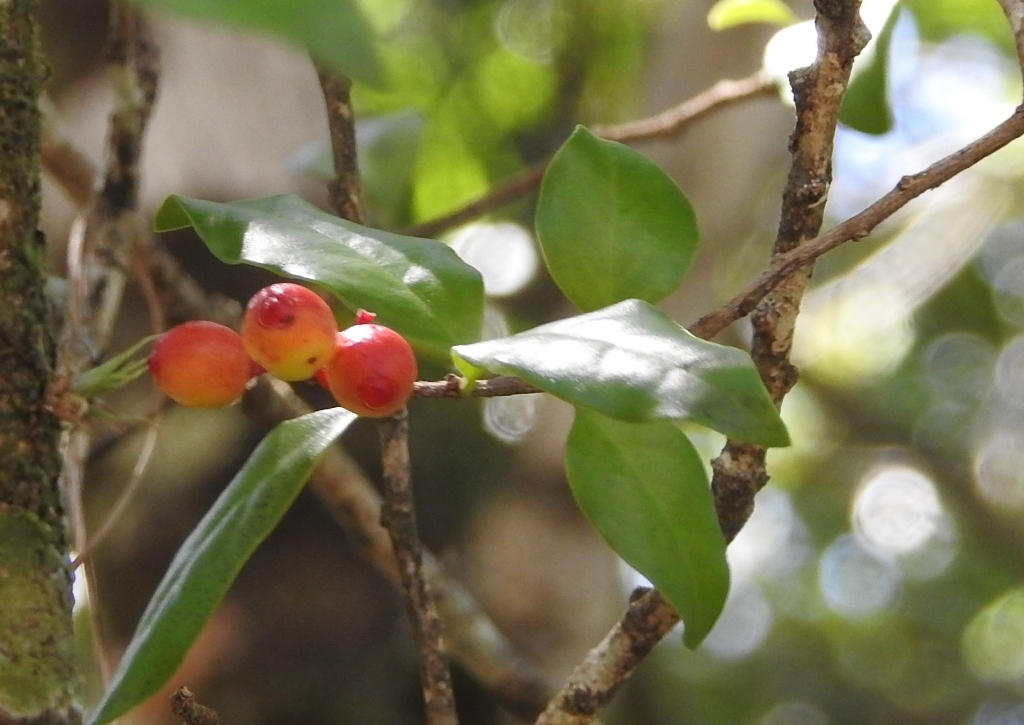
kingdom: Plantae
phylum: Tracheophyta
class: Magnoliopsida
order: Santalales
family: Schoepfiaceae
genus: Schoepfia
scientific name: Schoepfia schreberi
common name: Gulf graytwig
